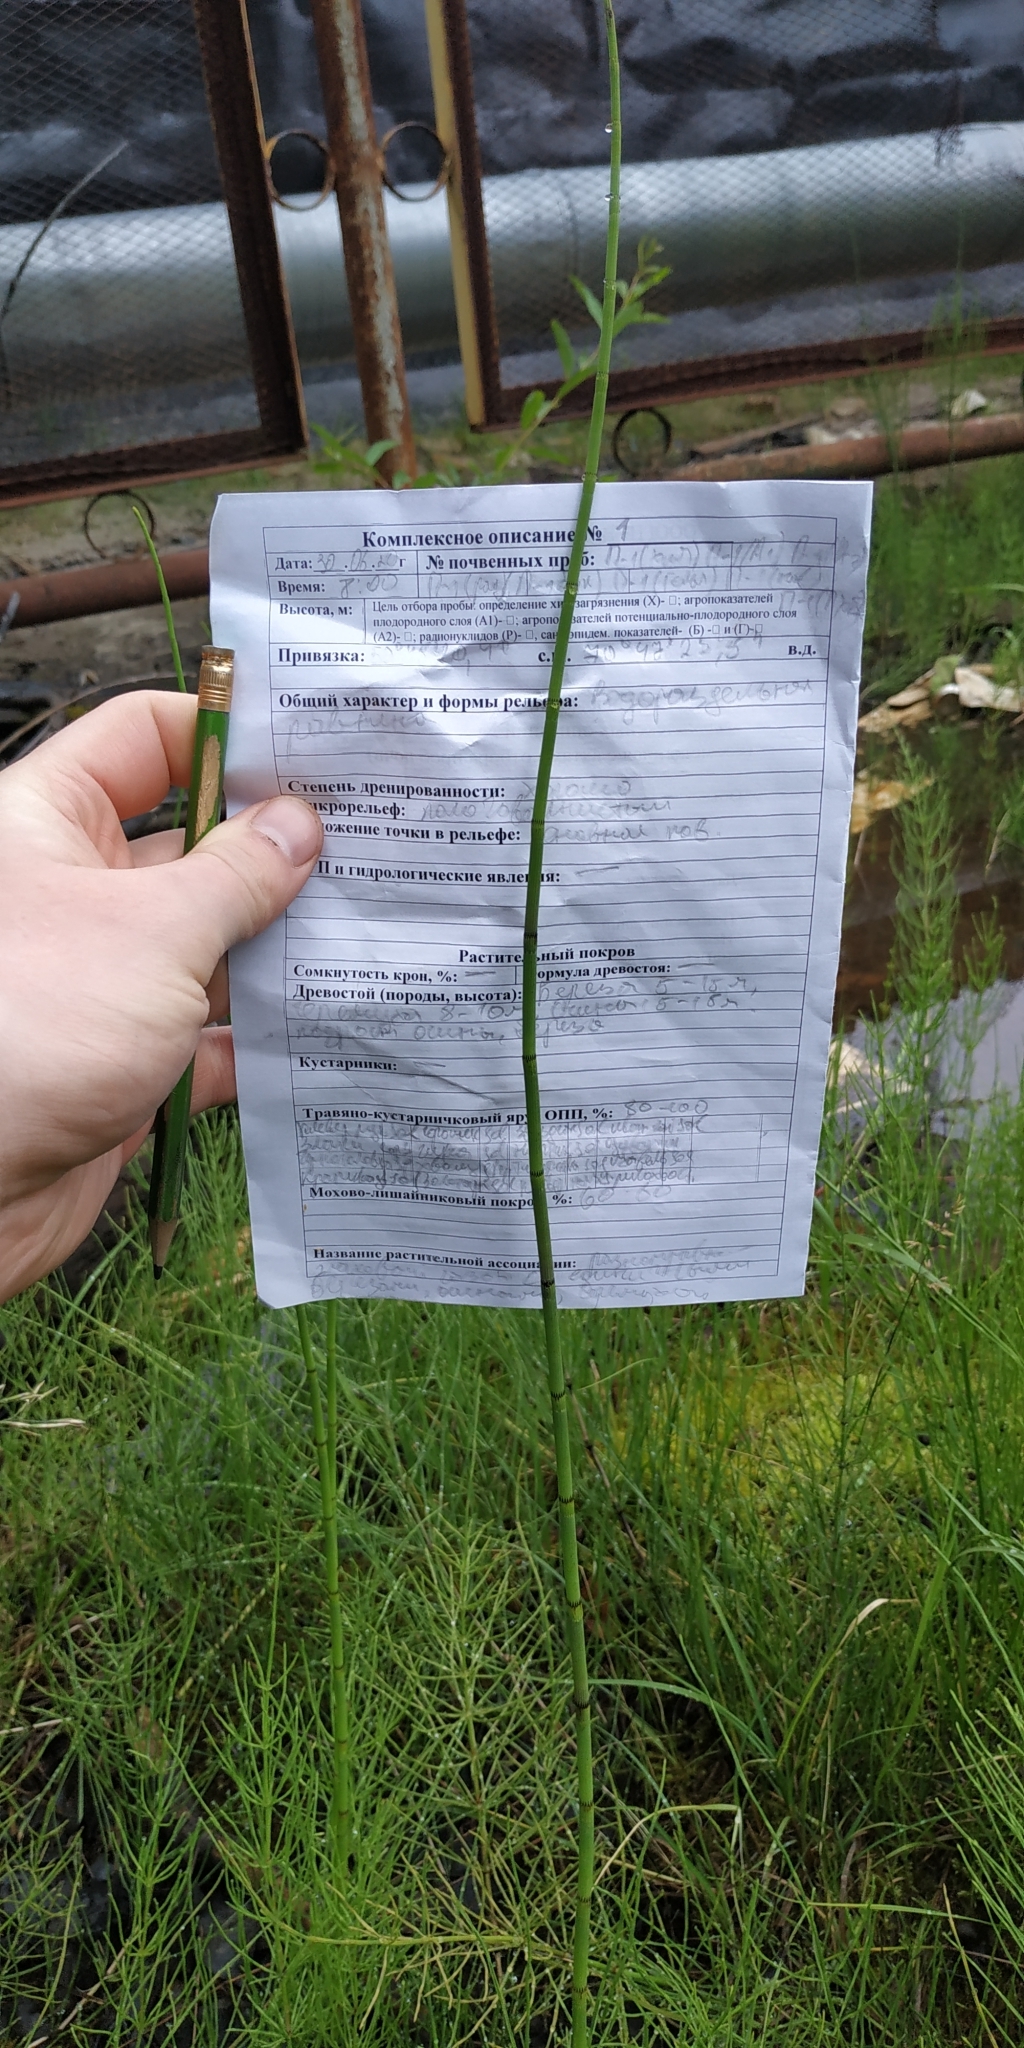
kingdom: Plantae
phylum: Tracheophyta
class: Polypodiopsida
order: Equisetales
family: Equisetaceae
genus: Equisetum
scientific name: Equisetum fluviatile
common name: Water horsetail
